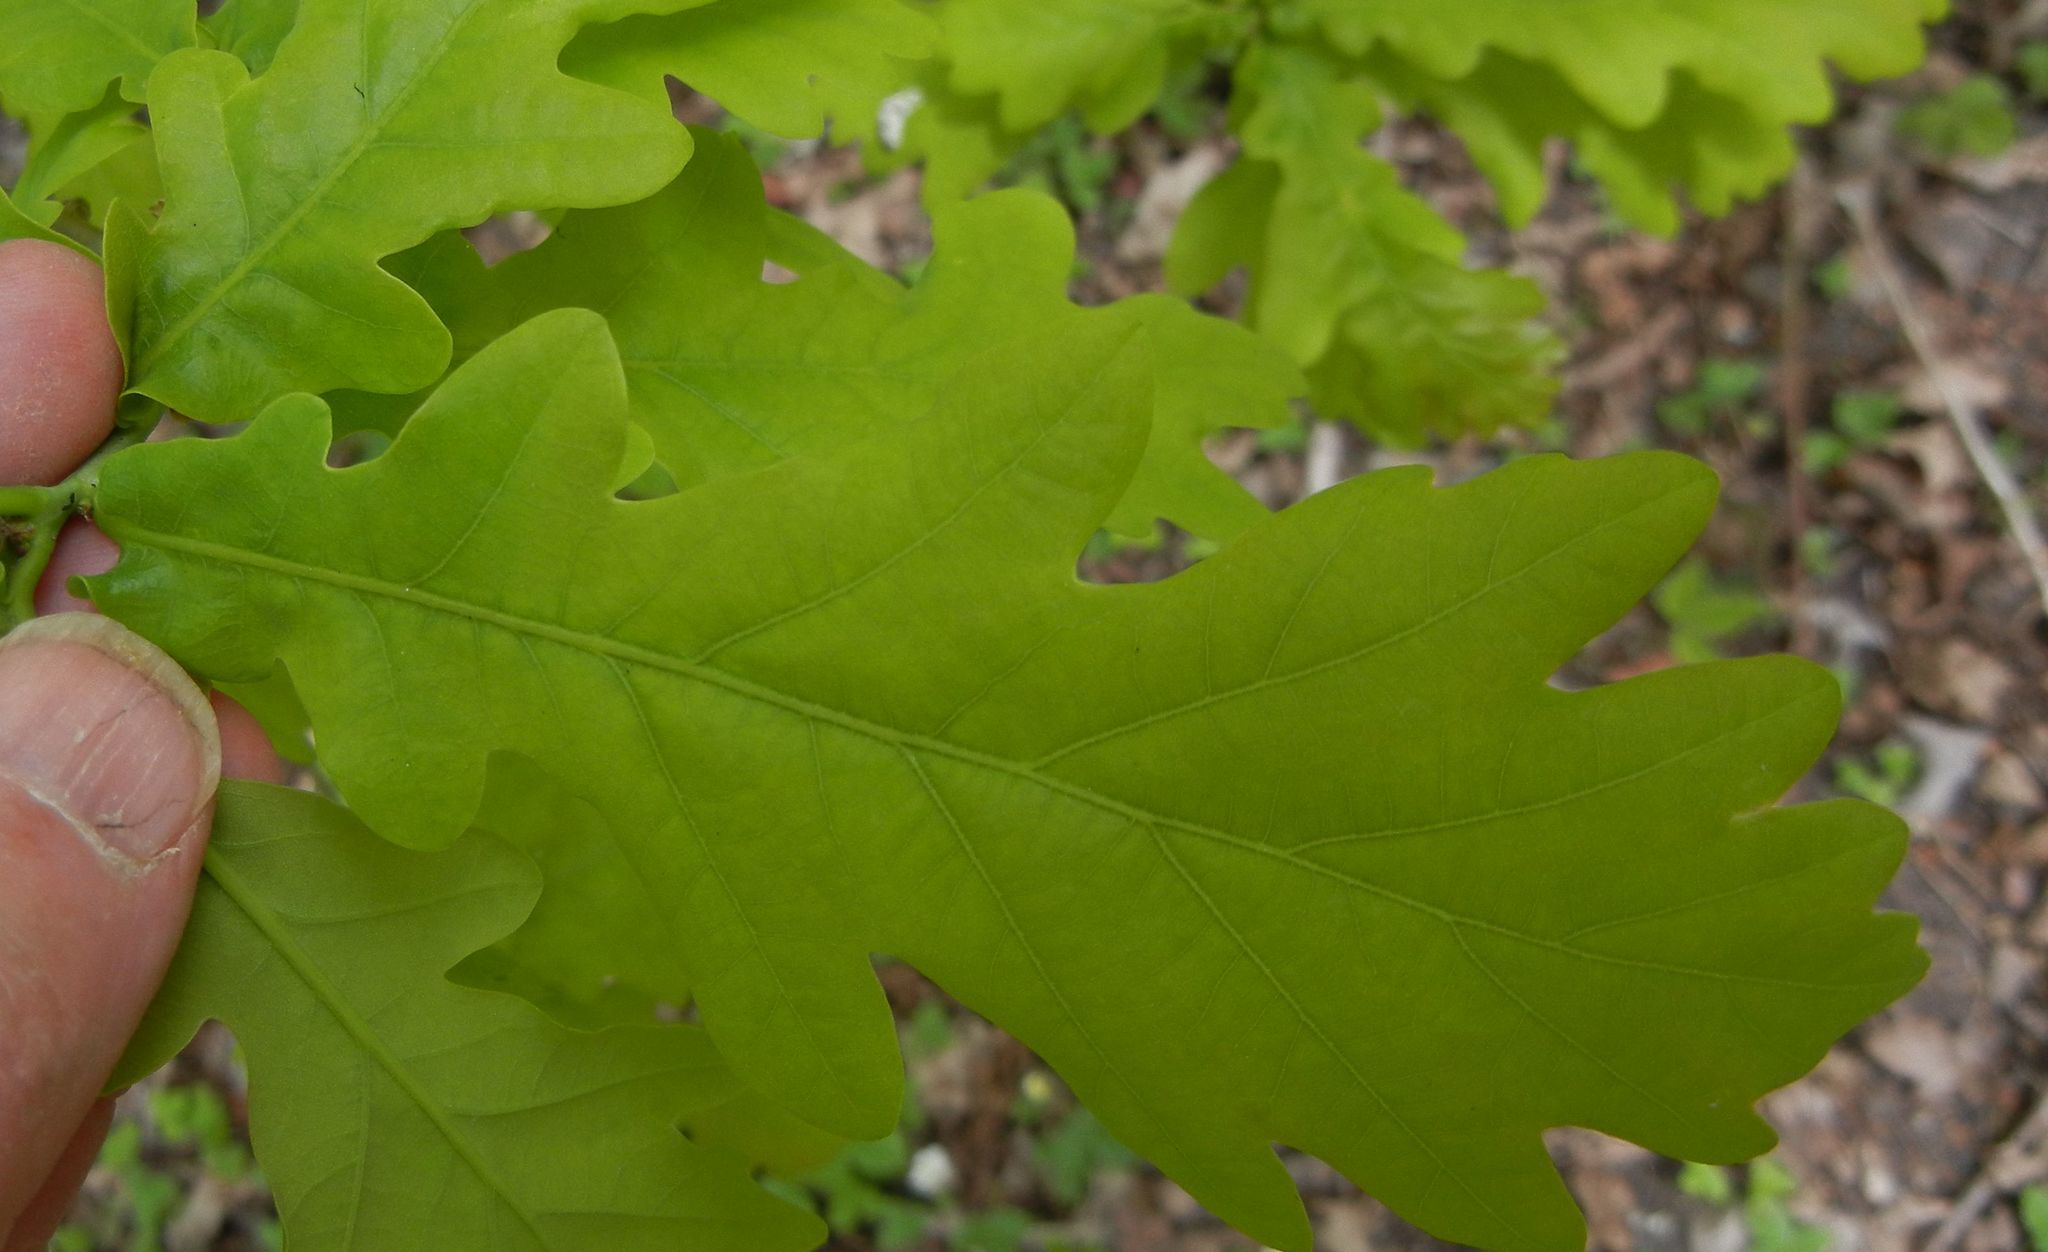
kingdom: Plantae
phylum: Tracheophyta
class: Magnoliopsida
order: Fagales
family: Fagaceae
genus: Quercus
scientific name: Quercus robur
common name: Pedunculate oak
